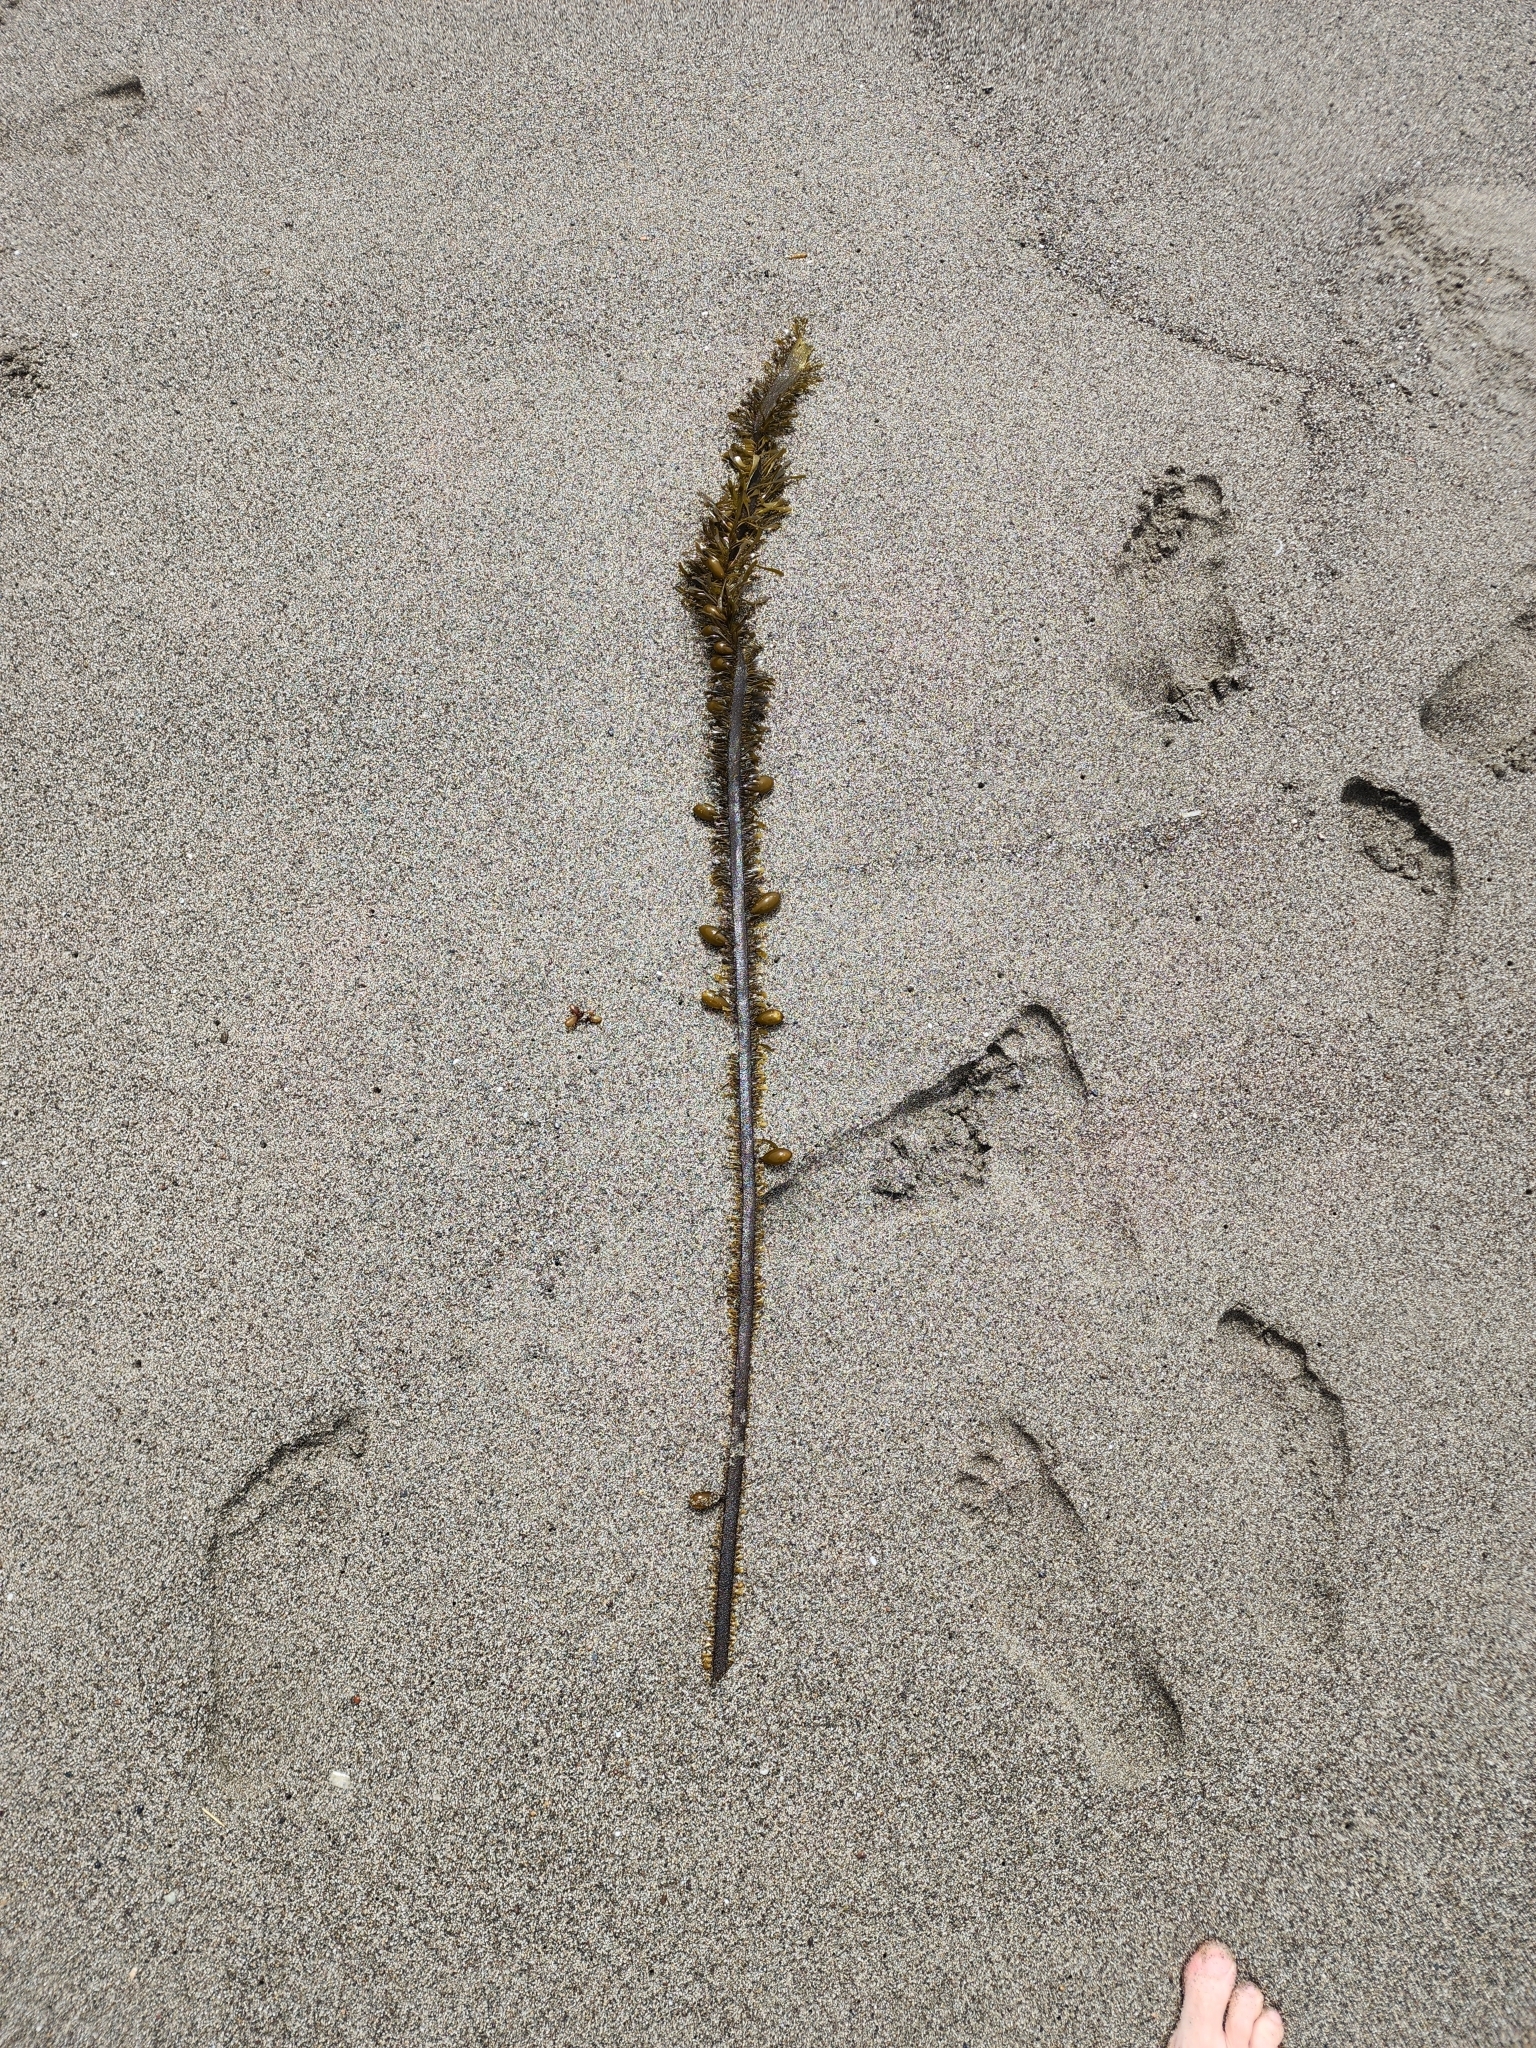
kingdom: Chromista
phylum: Ochrophyta
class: Phaeophyceae
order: Laminariales
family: Lessoniaceae
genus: Egregia
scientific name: Egregia menziesii
